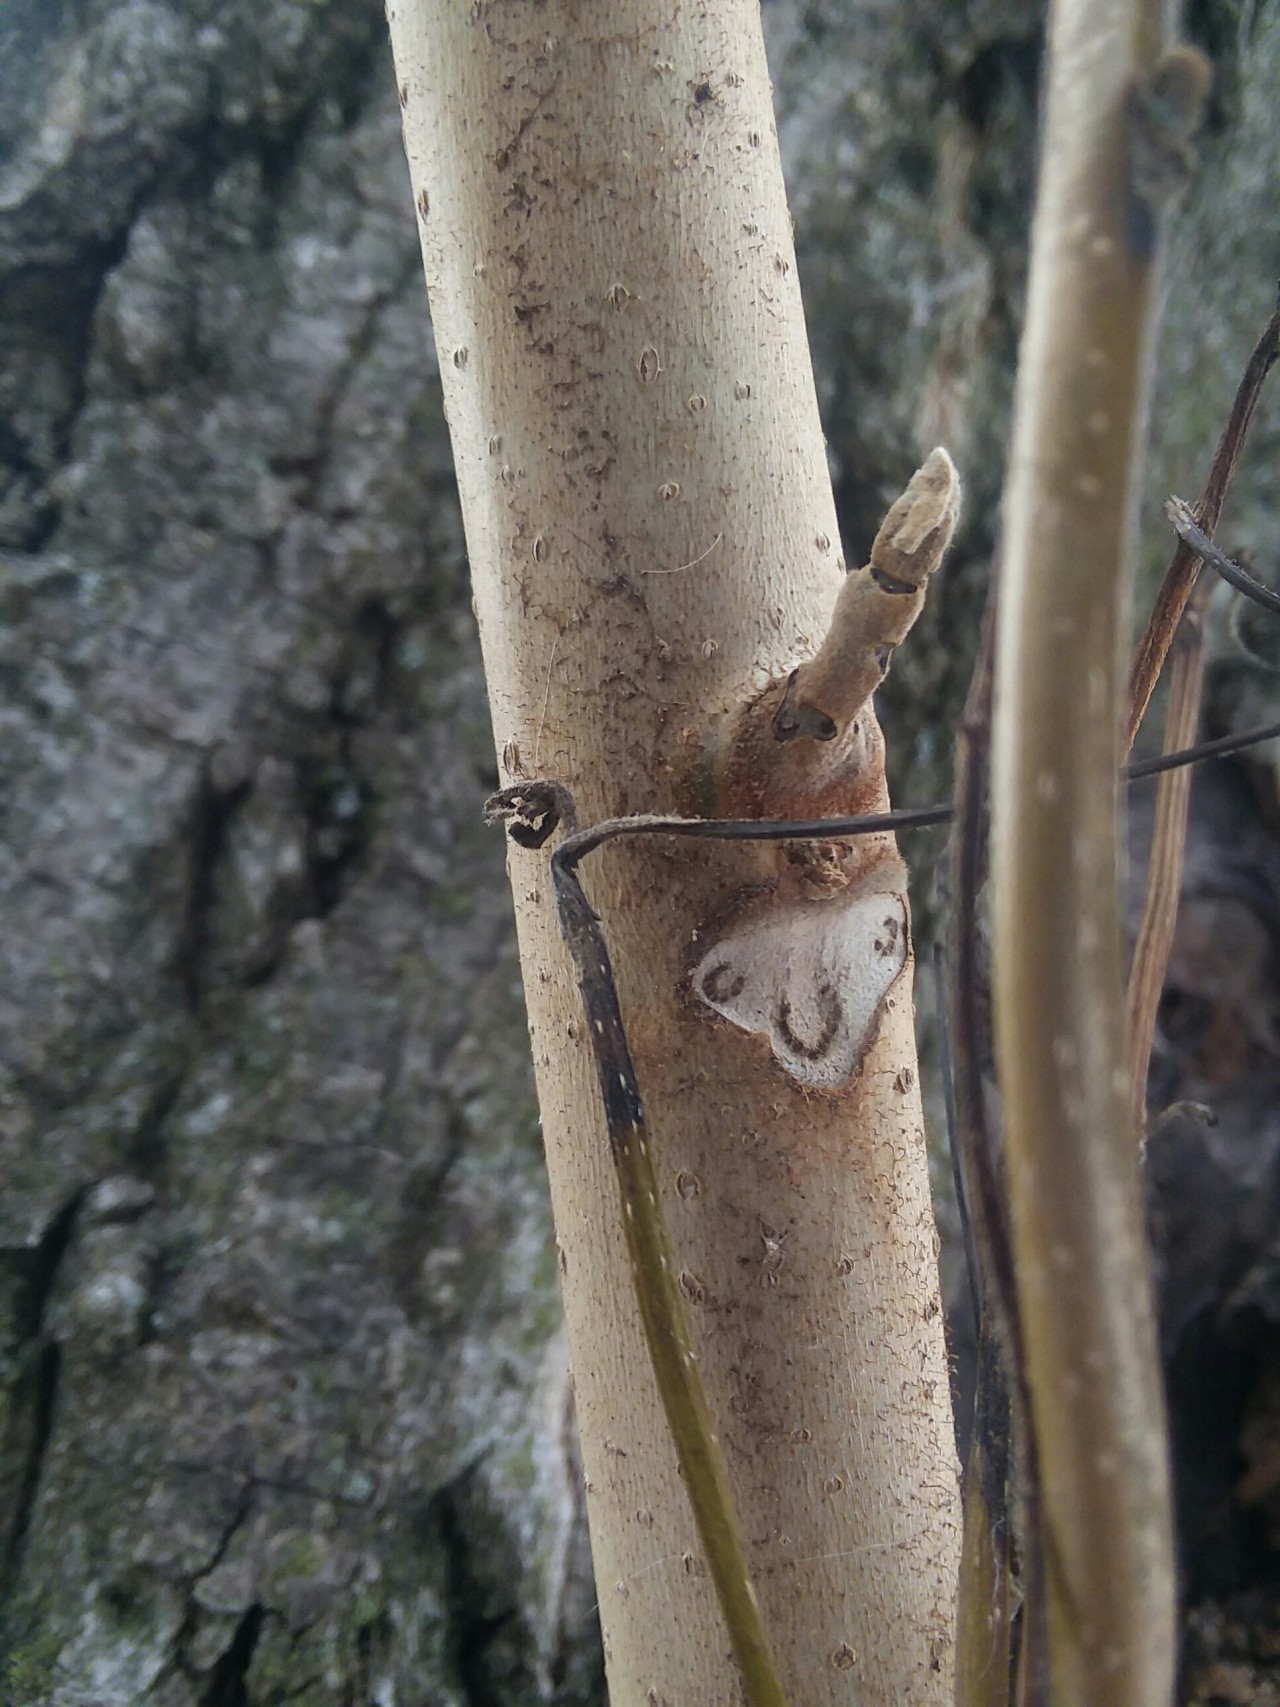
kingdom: Plantae
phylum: Tracheophyta
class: Magnoliopsida
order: Fagales
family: Juglandaceae
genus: Juglans
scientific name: Juglans cinerea
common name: Butternut
